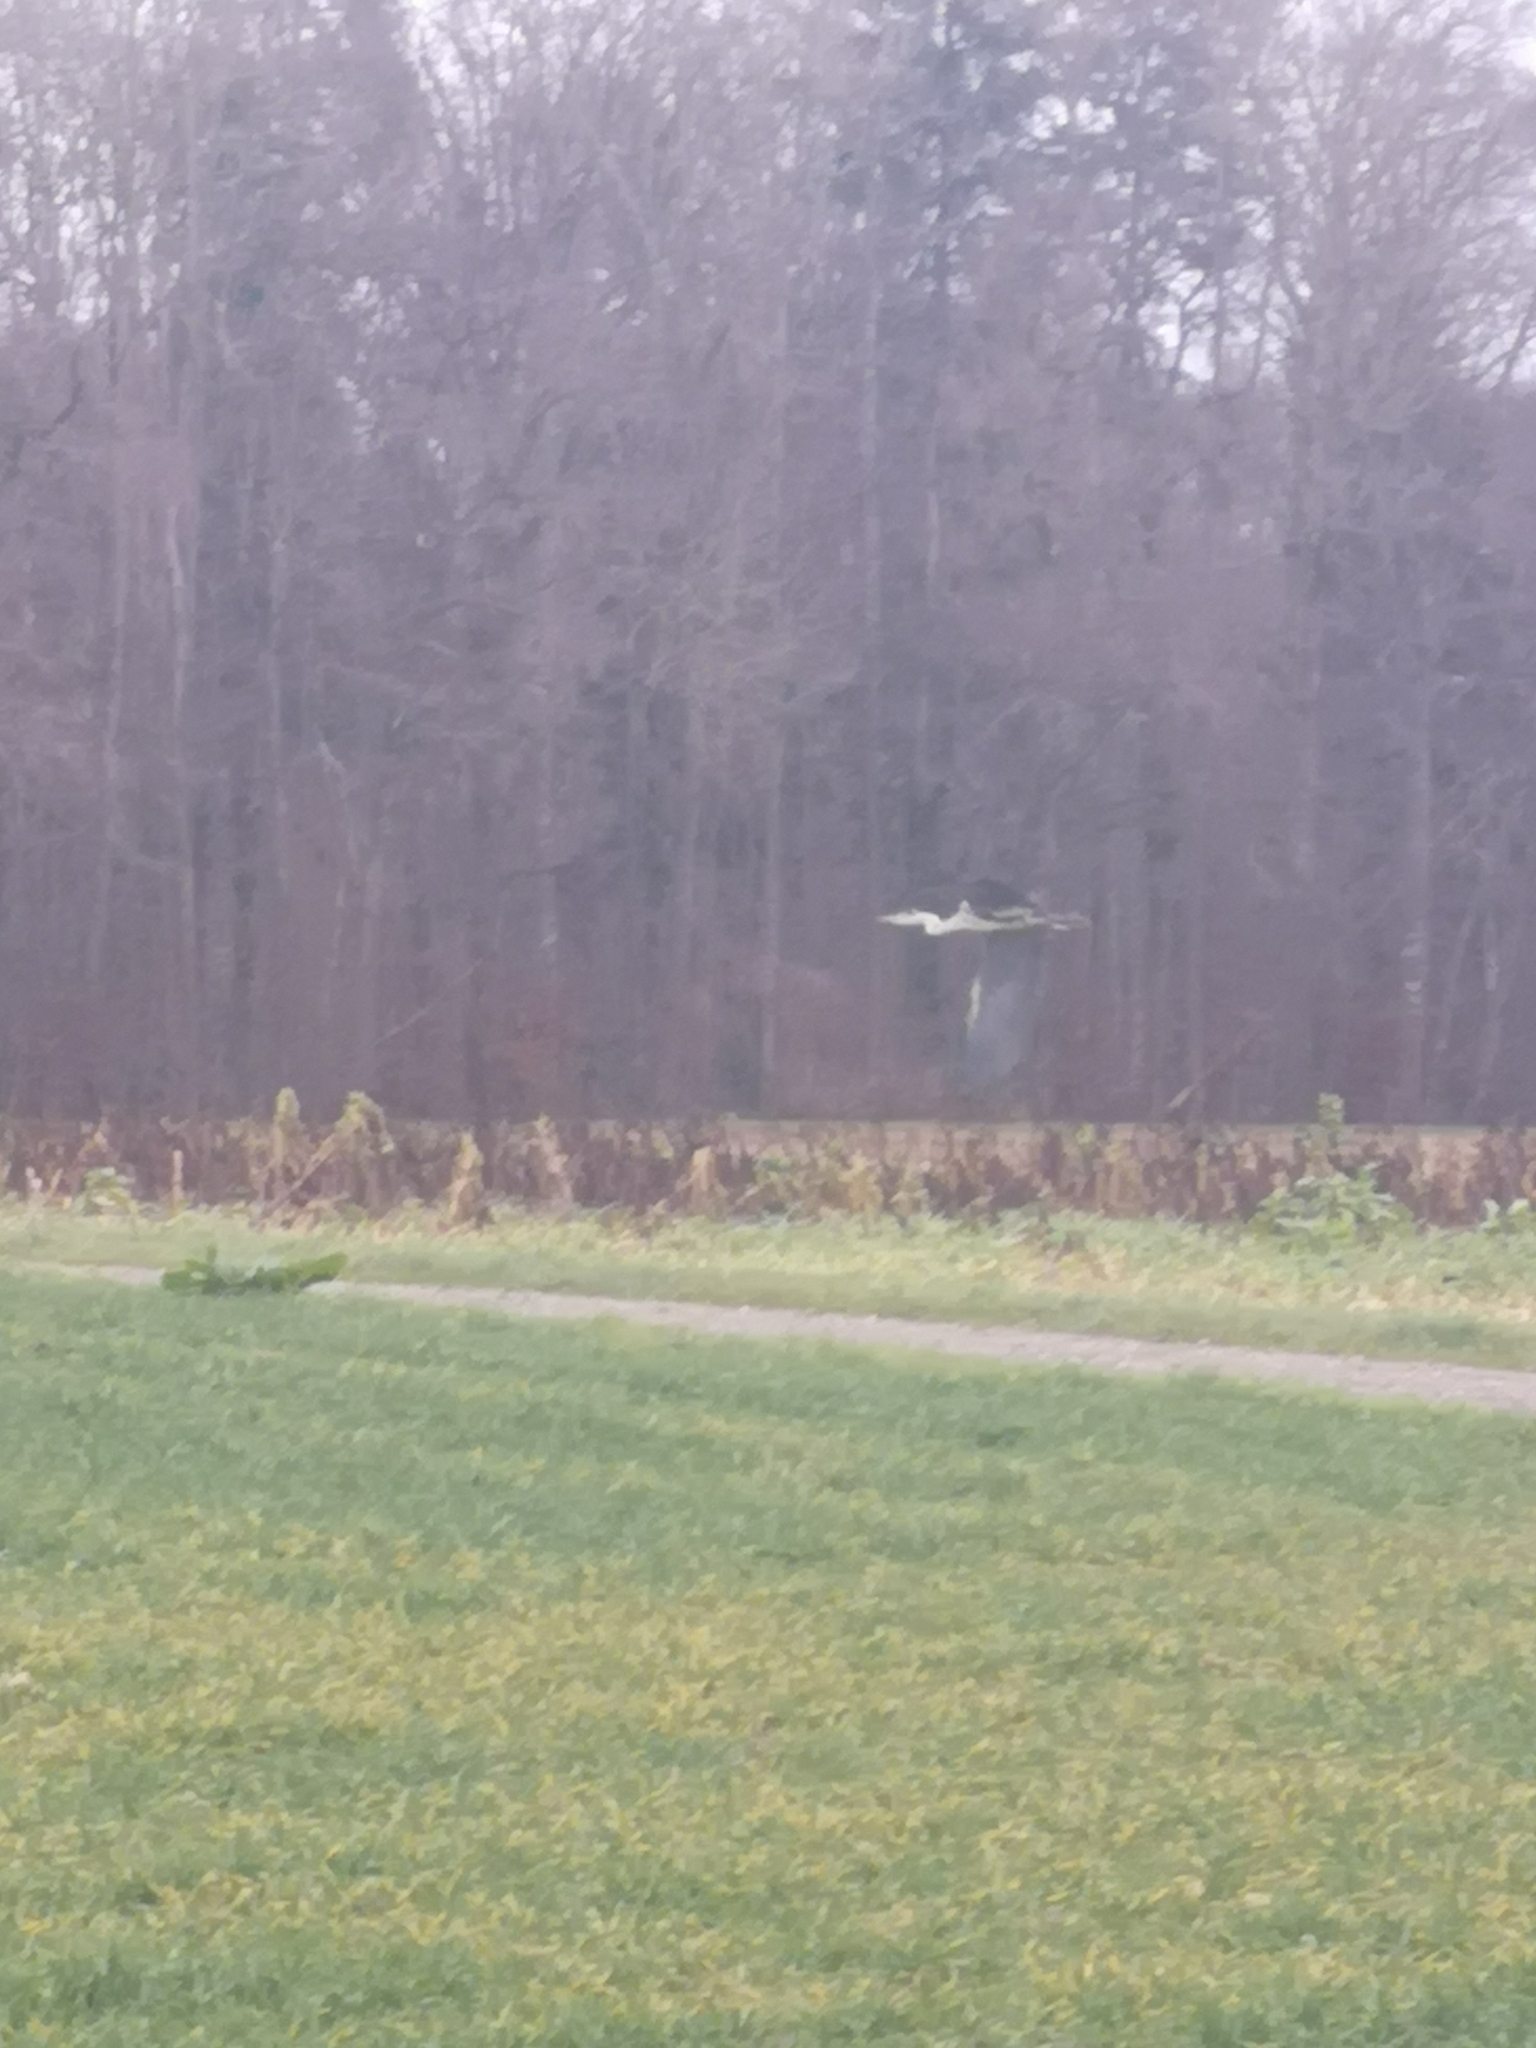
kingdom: Animalia
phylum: Chordata
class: Aves
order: Pelecaniformes
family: Ardeidae
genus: Ardea
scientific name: Ardea cinerea
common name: Grey heron
